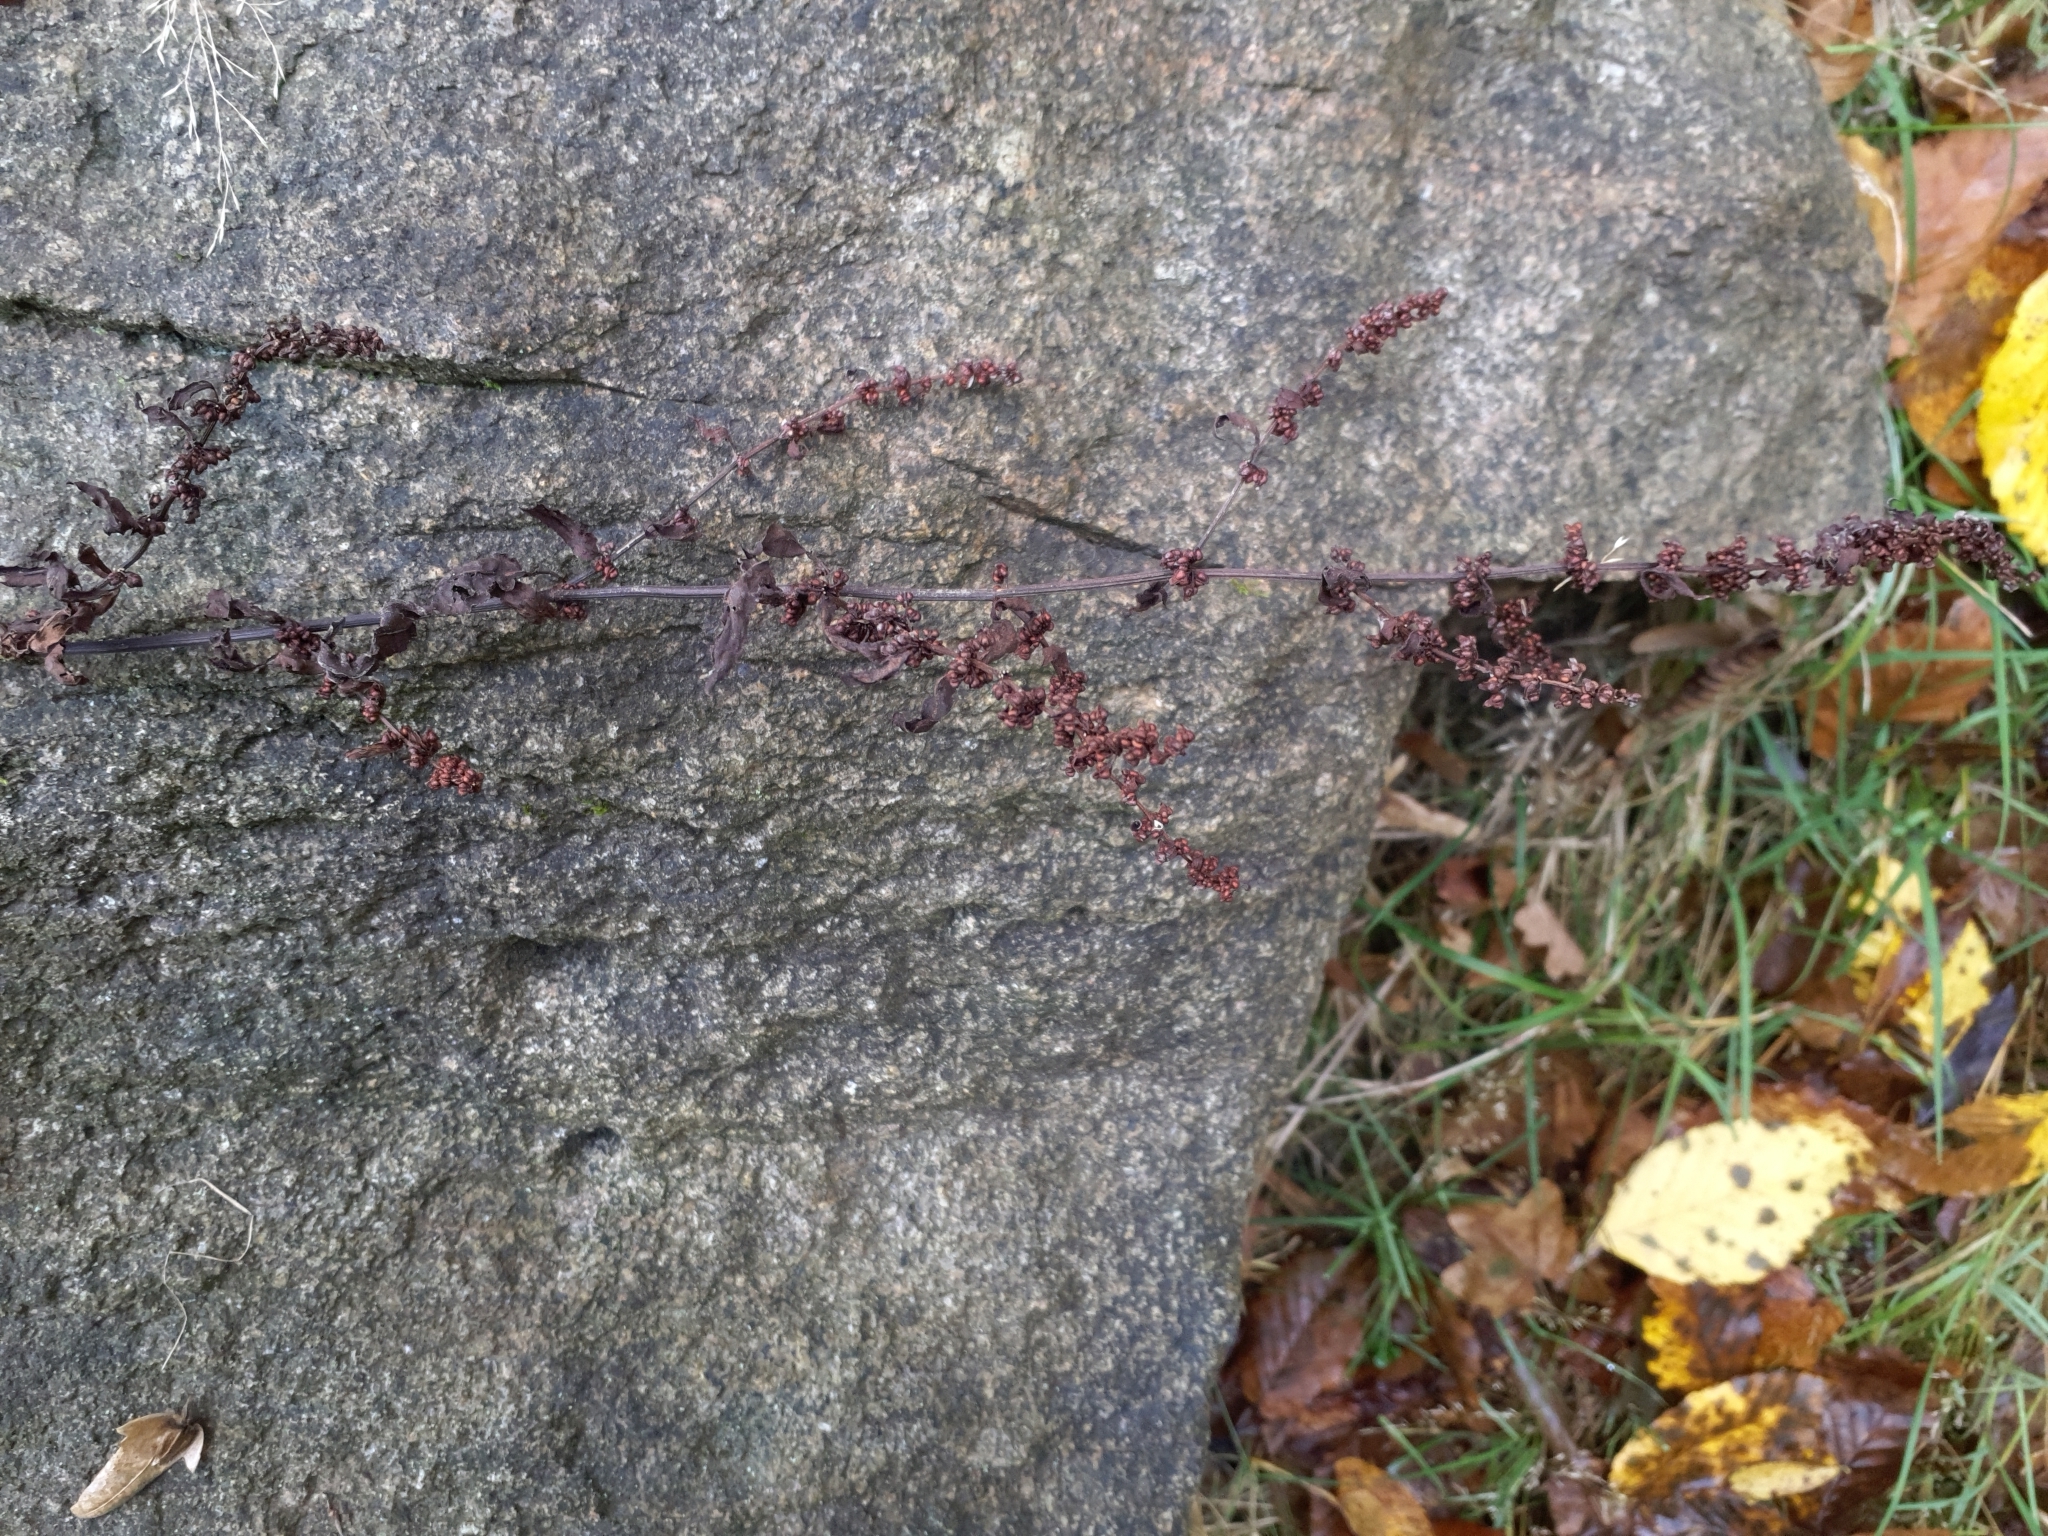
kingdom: Plantae
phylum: Tracheophyta
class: Magnoliopsida
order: Caryophyllales
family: Polygonaceae
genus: Rumex
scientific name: Rumex conglomeratus
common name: Clustered dock
